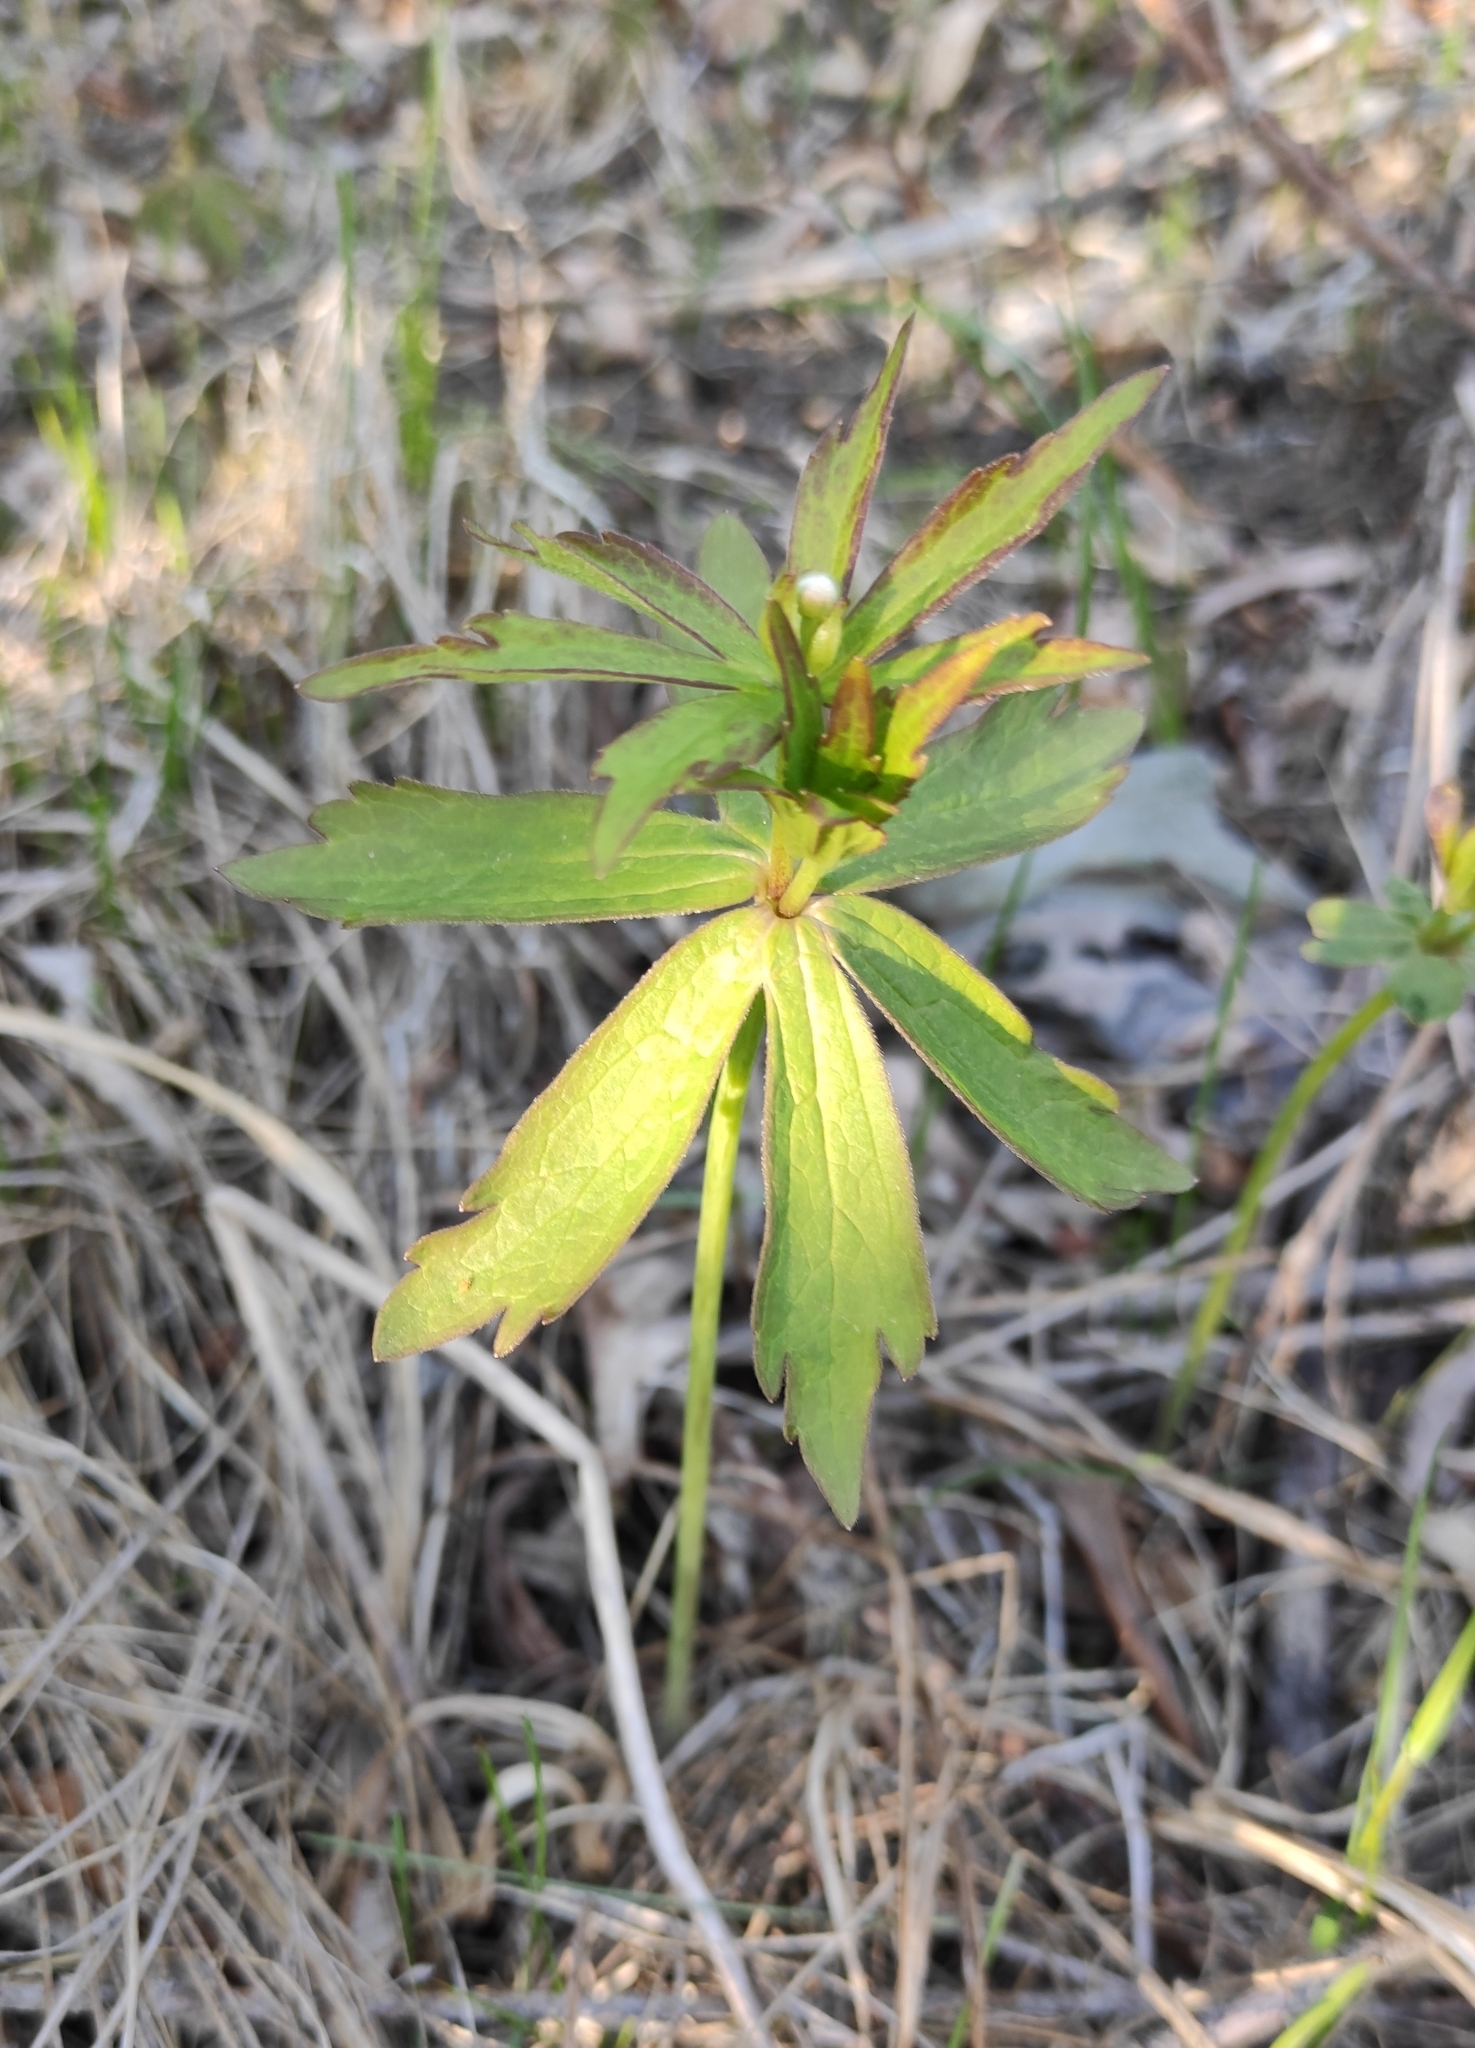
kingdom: Plantae
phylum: Tracheophyta
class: Magnoliopsida
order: Ranunculales
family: Ranunculaceae
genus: Anemonastrum
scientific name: Anemonastrum dichotomum
